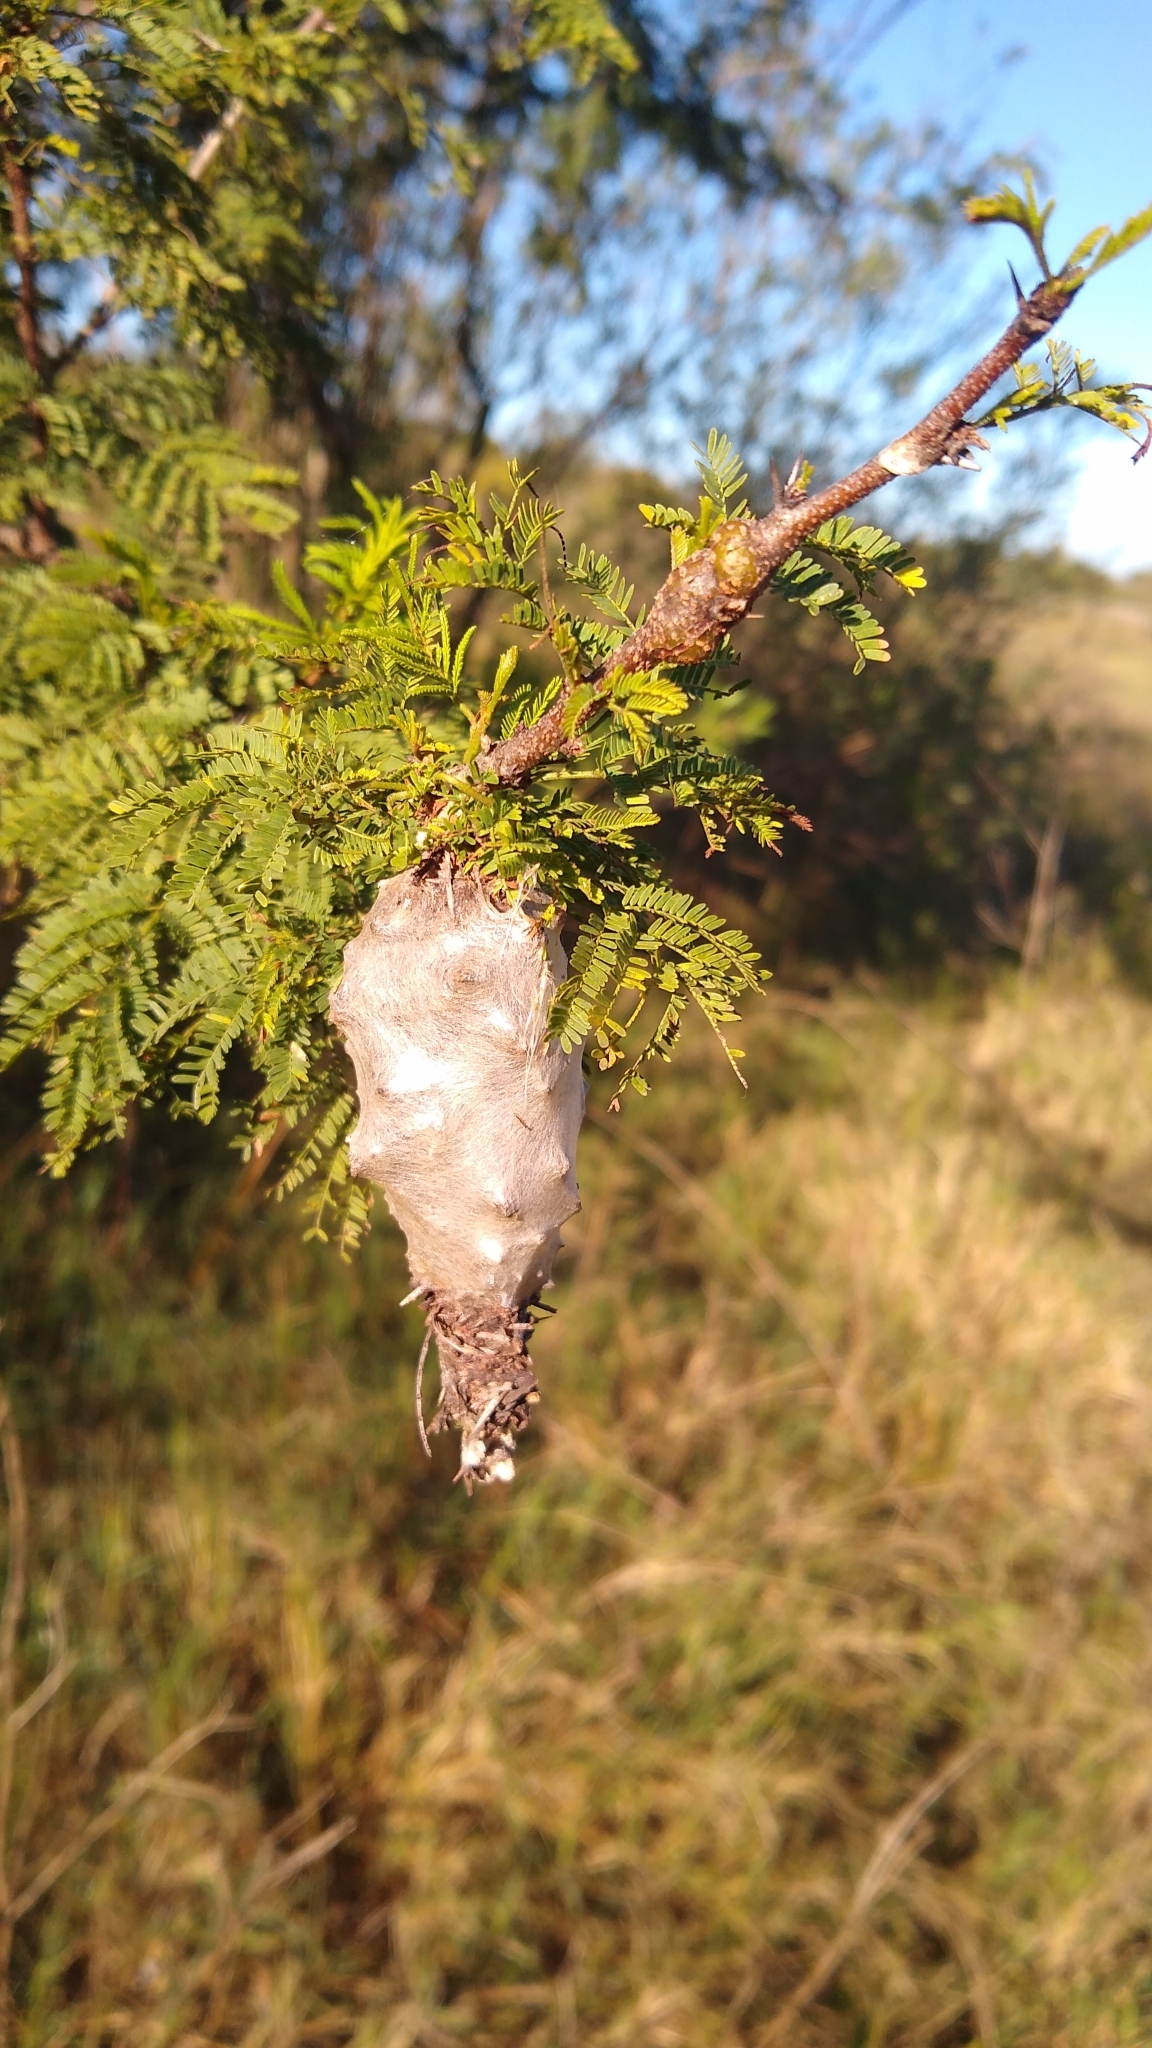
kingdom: Animalia
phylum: Arthropoda
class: Insecta
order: Lepidoptera
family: Psychidae
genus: Oiketicus
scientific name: Oiketicus
